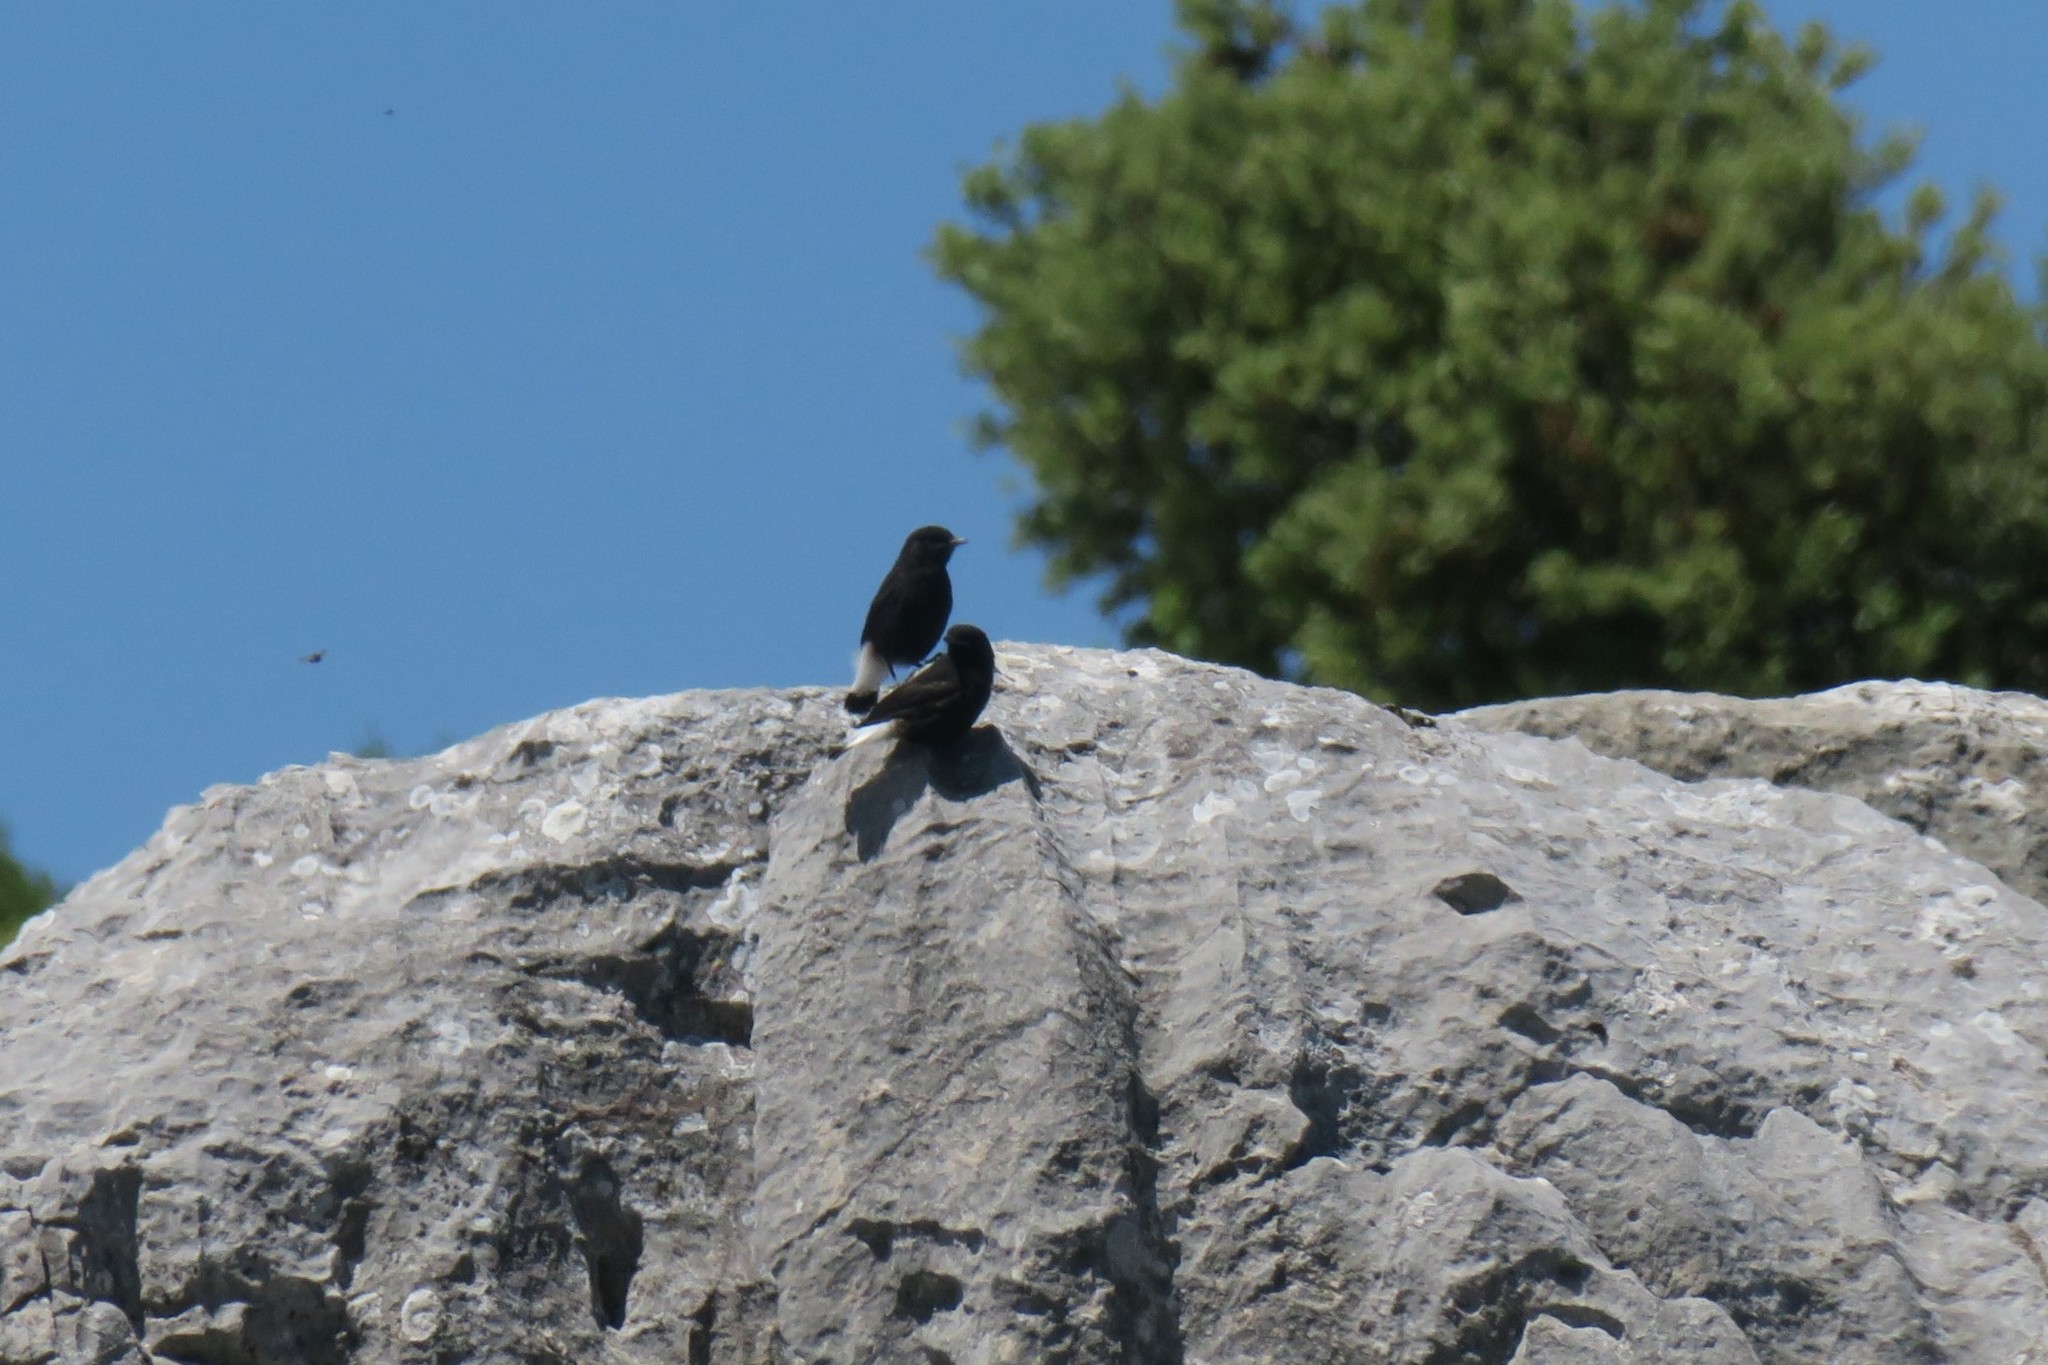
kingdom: Animalia
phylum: Chordata
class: Aves
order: Passeriformes
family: Muscicapidae
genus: Oenanthe
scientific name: Oenanthe leucura
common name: Black wheatear
